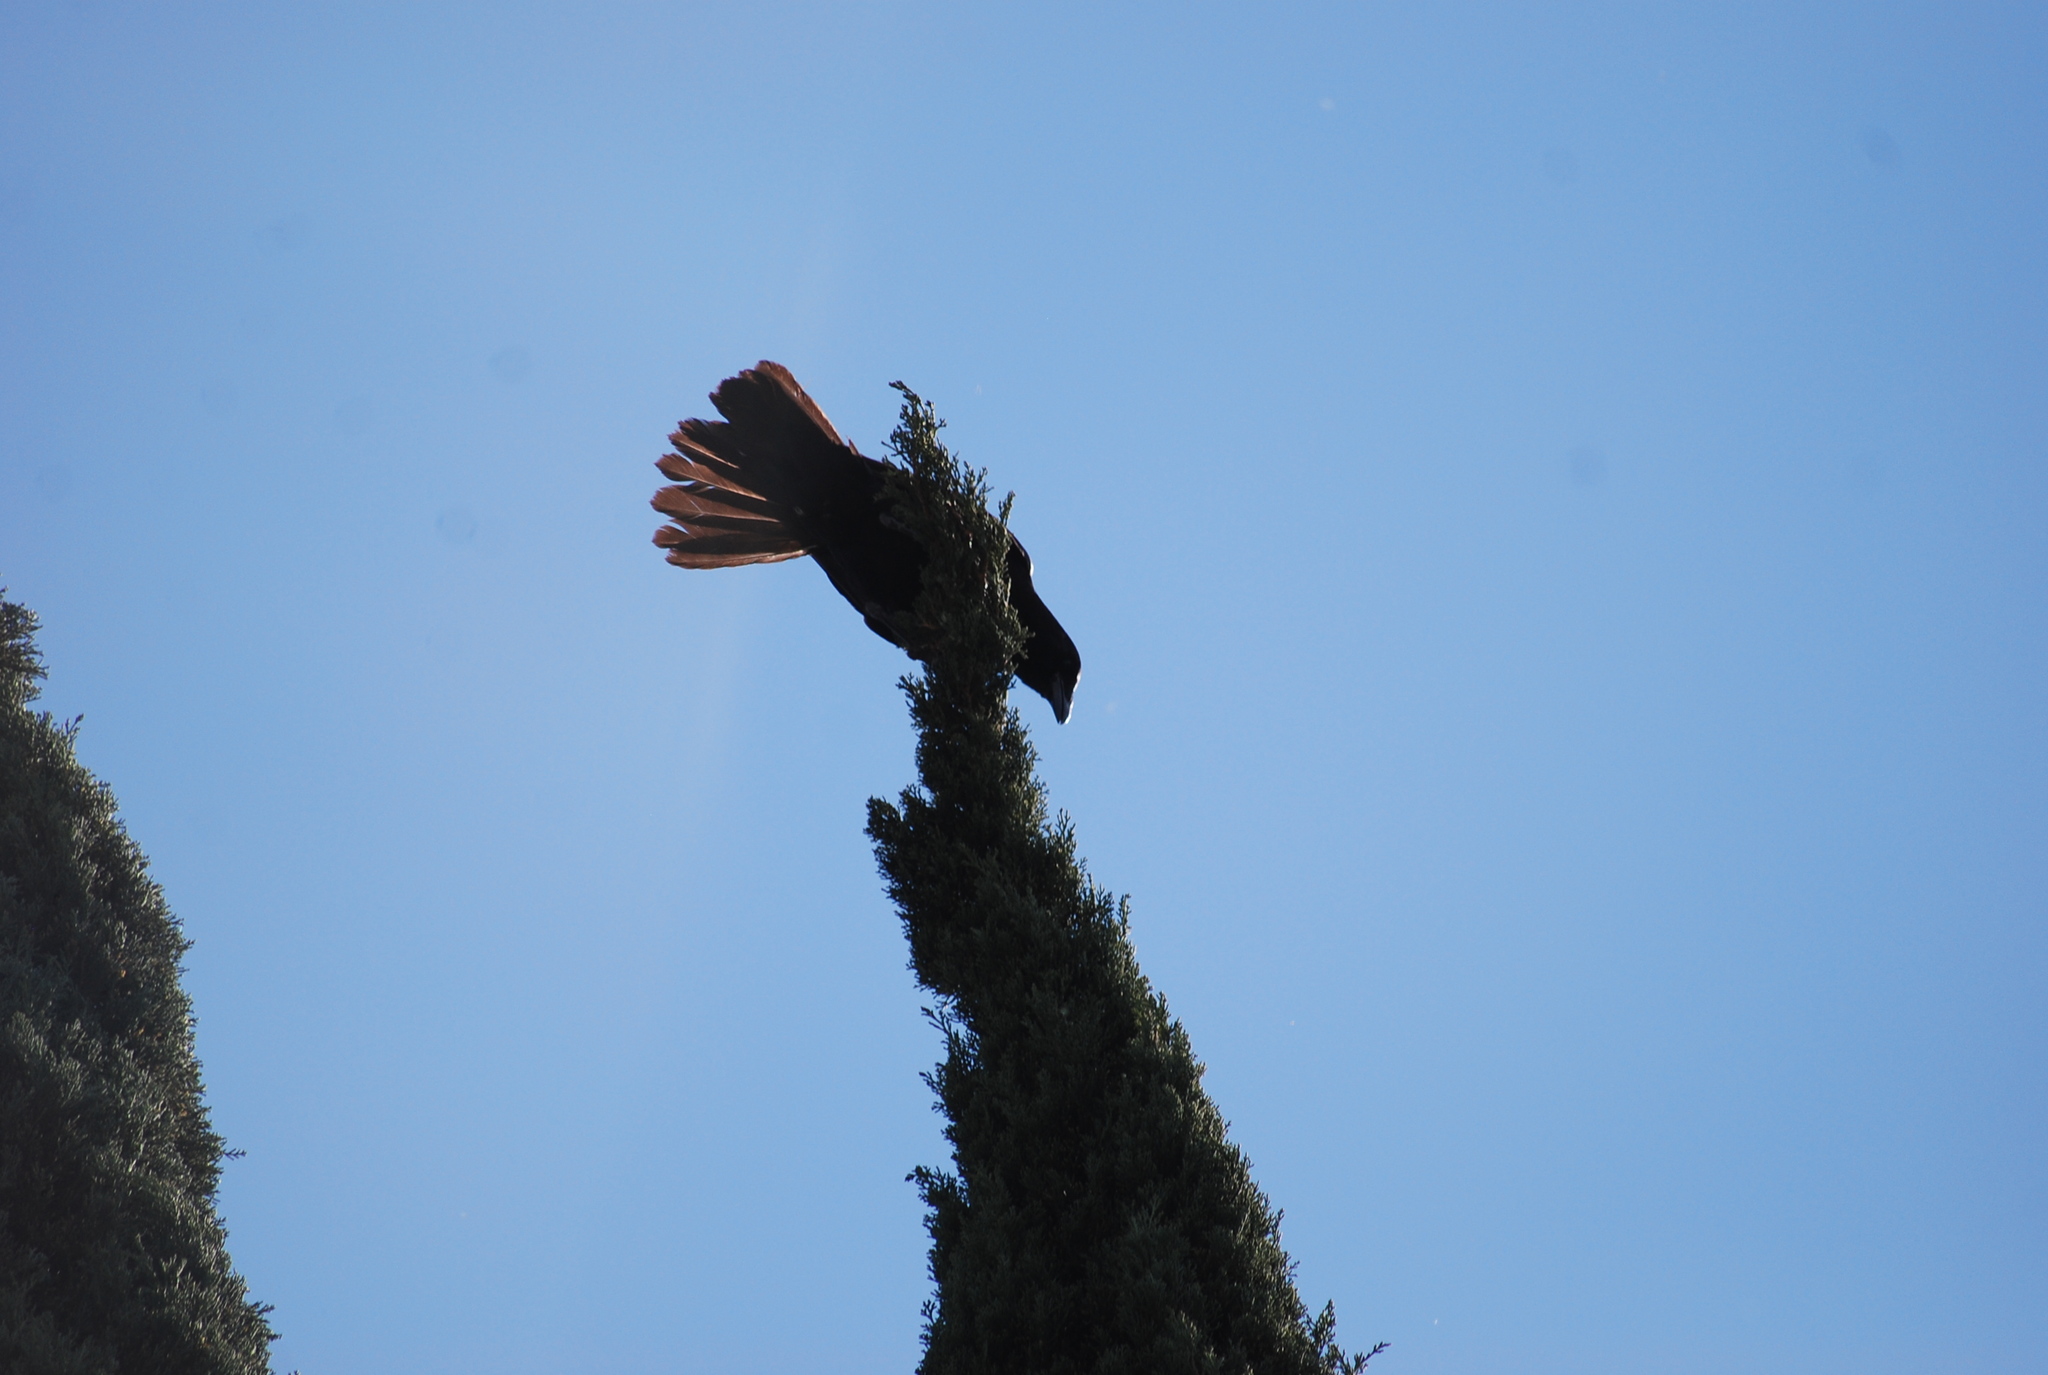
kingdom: Animalia
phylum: Chordata
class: Aves
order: Passeriformes
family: Corvidae
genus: Corvus
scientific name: Corvus brachyrhynchos
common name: American crow
